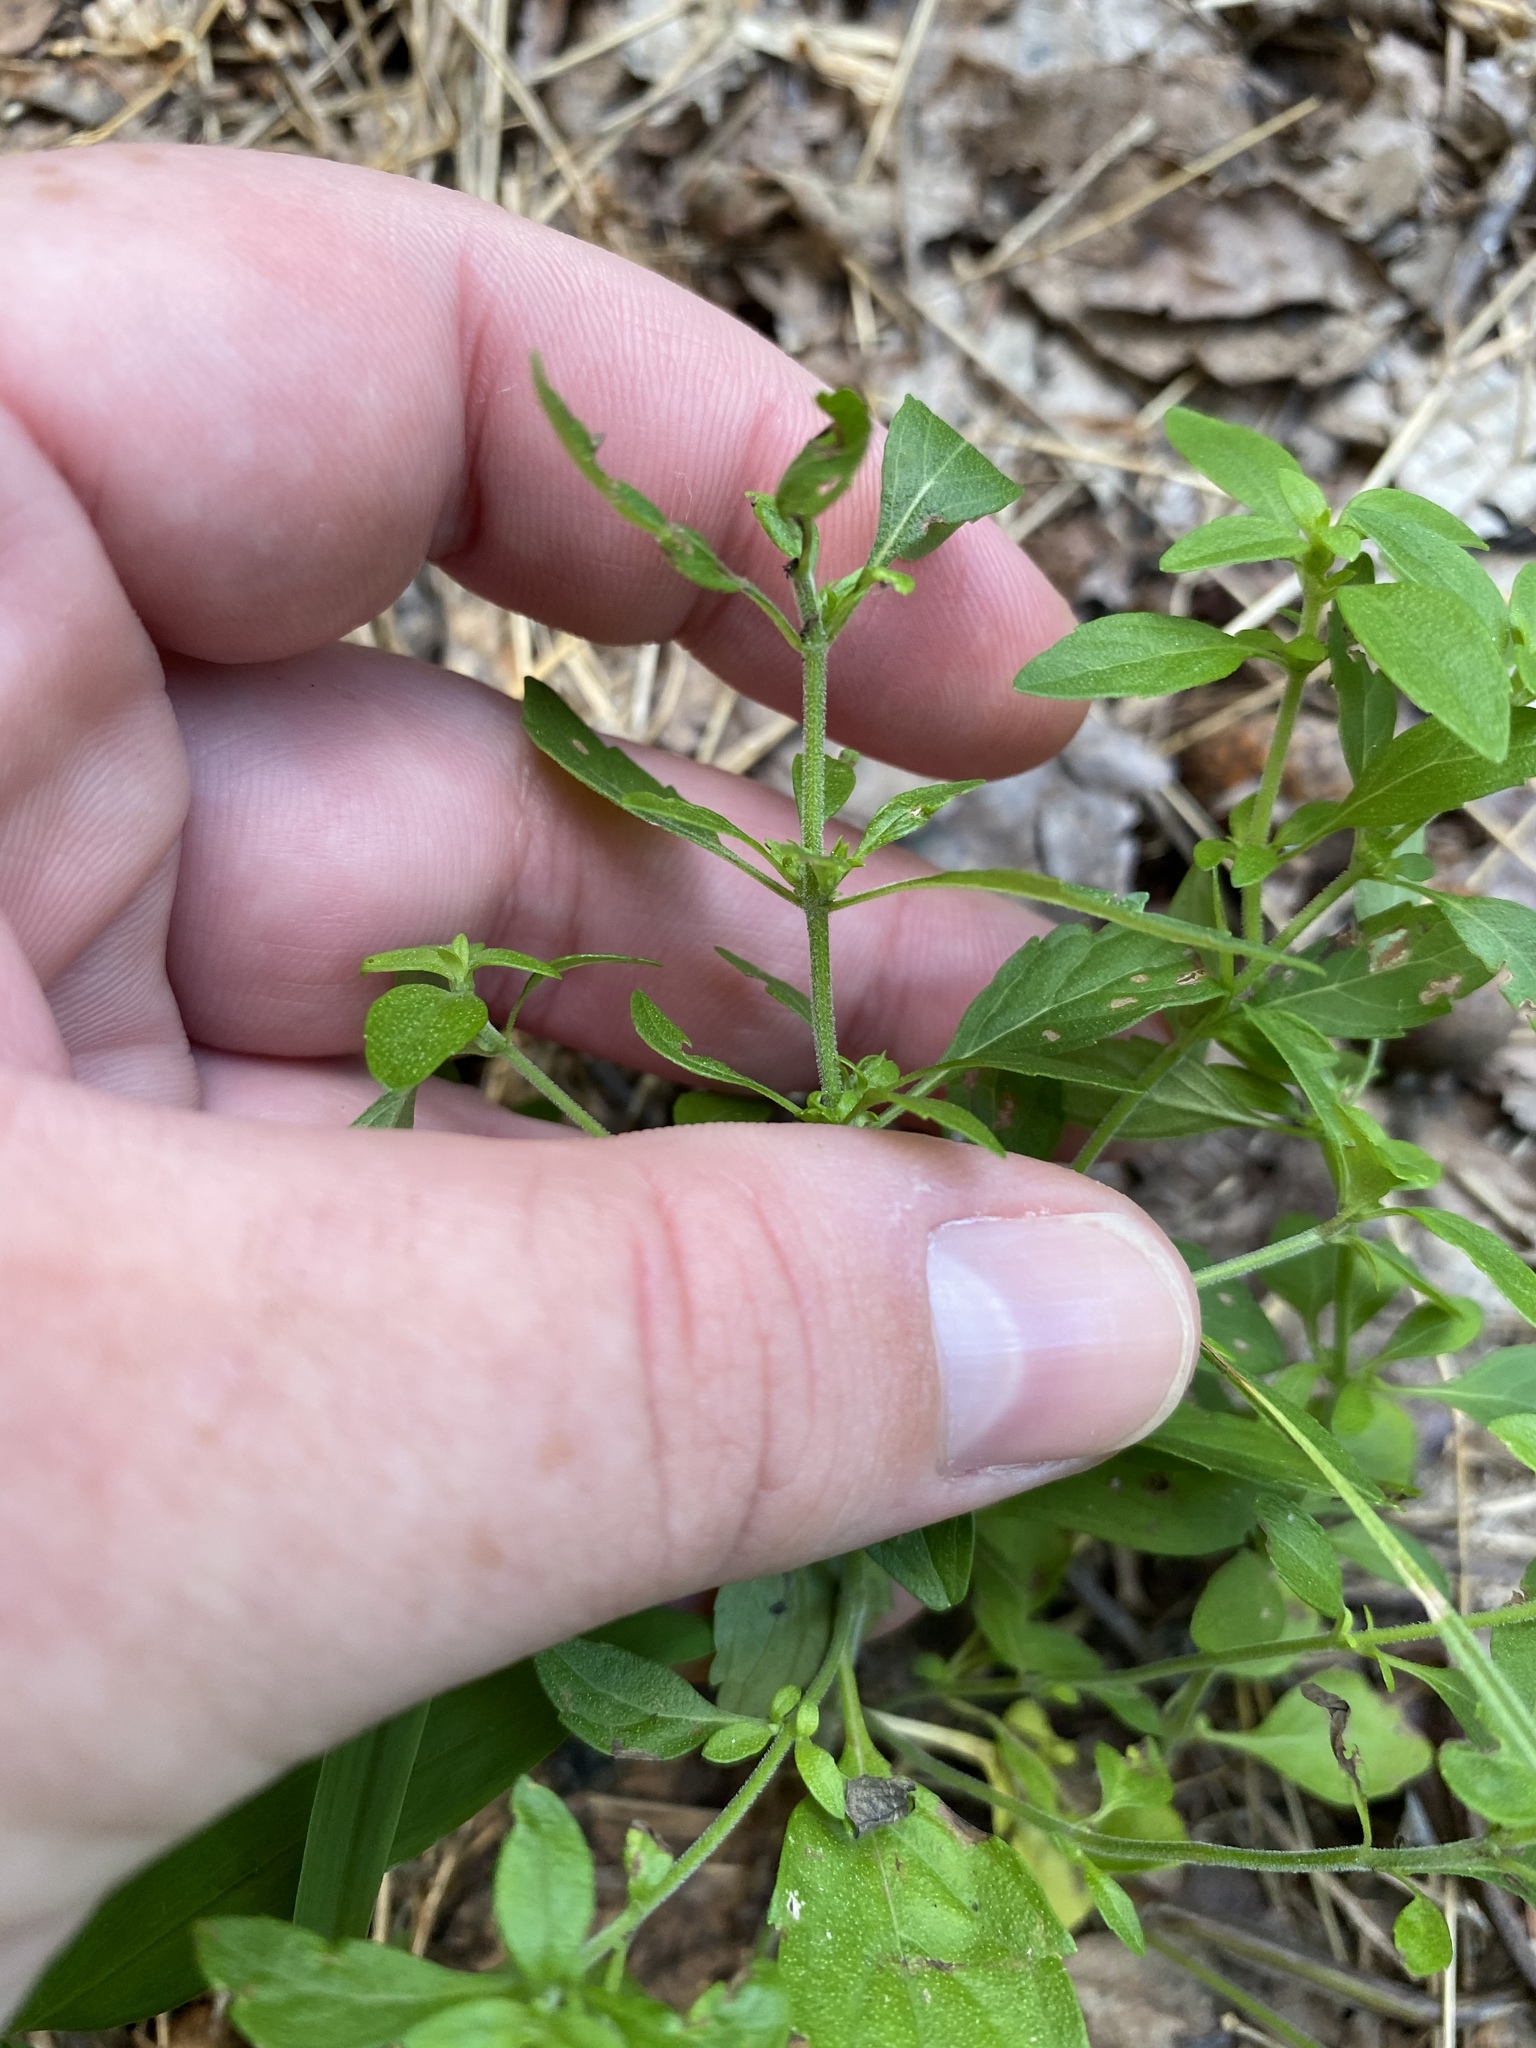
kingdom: Plantae
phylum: Tracheophyta
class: Magnoliopsida
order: Lamiales
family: Lamiaceae
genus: Hedeoma
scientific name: Hedeoma pulegioides
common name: American false pennyroyal
